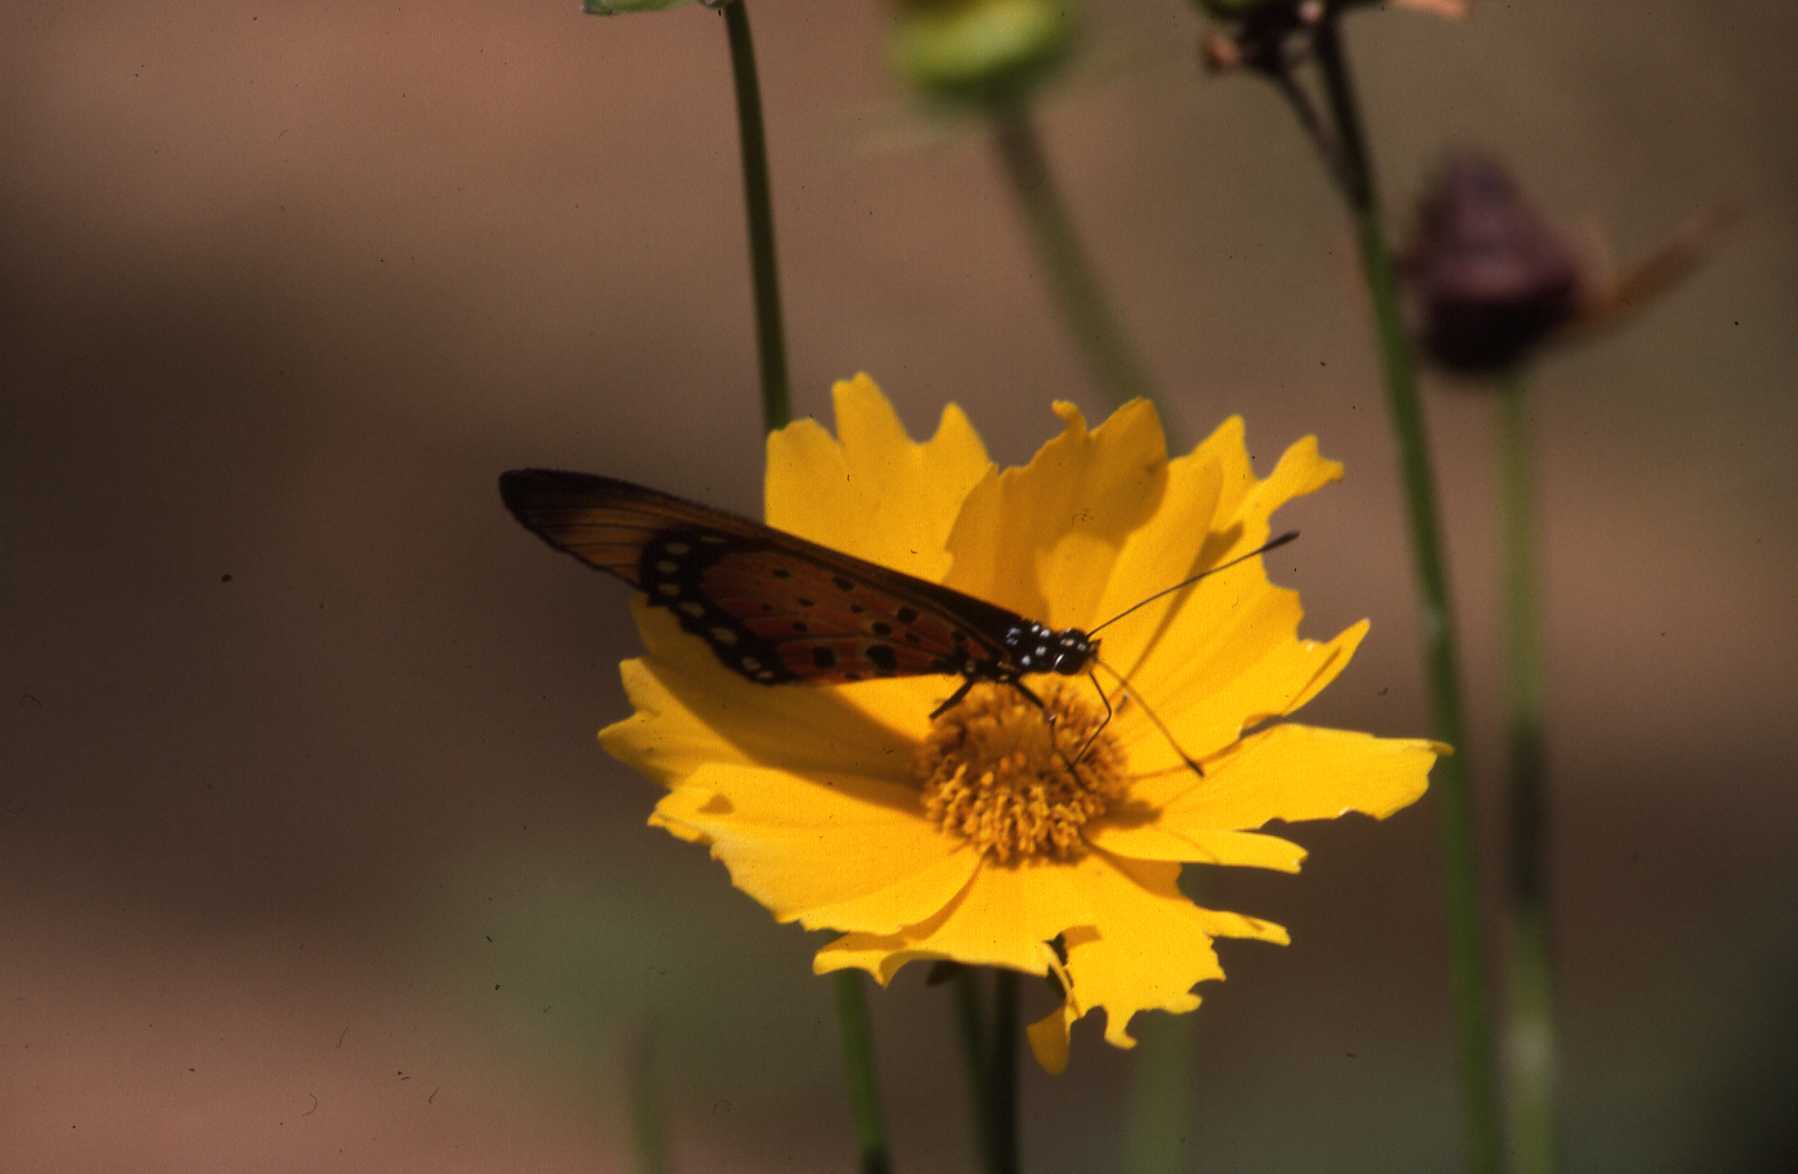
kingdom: Animalia
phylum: Arthropoda
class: Insecta
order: Lepidoptera
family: Nymphalidae
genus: Stephenia
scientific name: Stephenia
